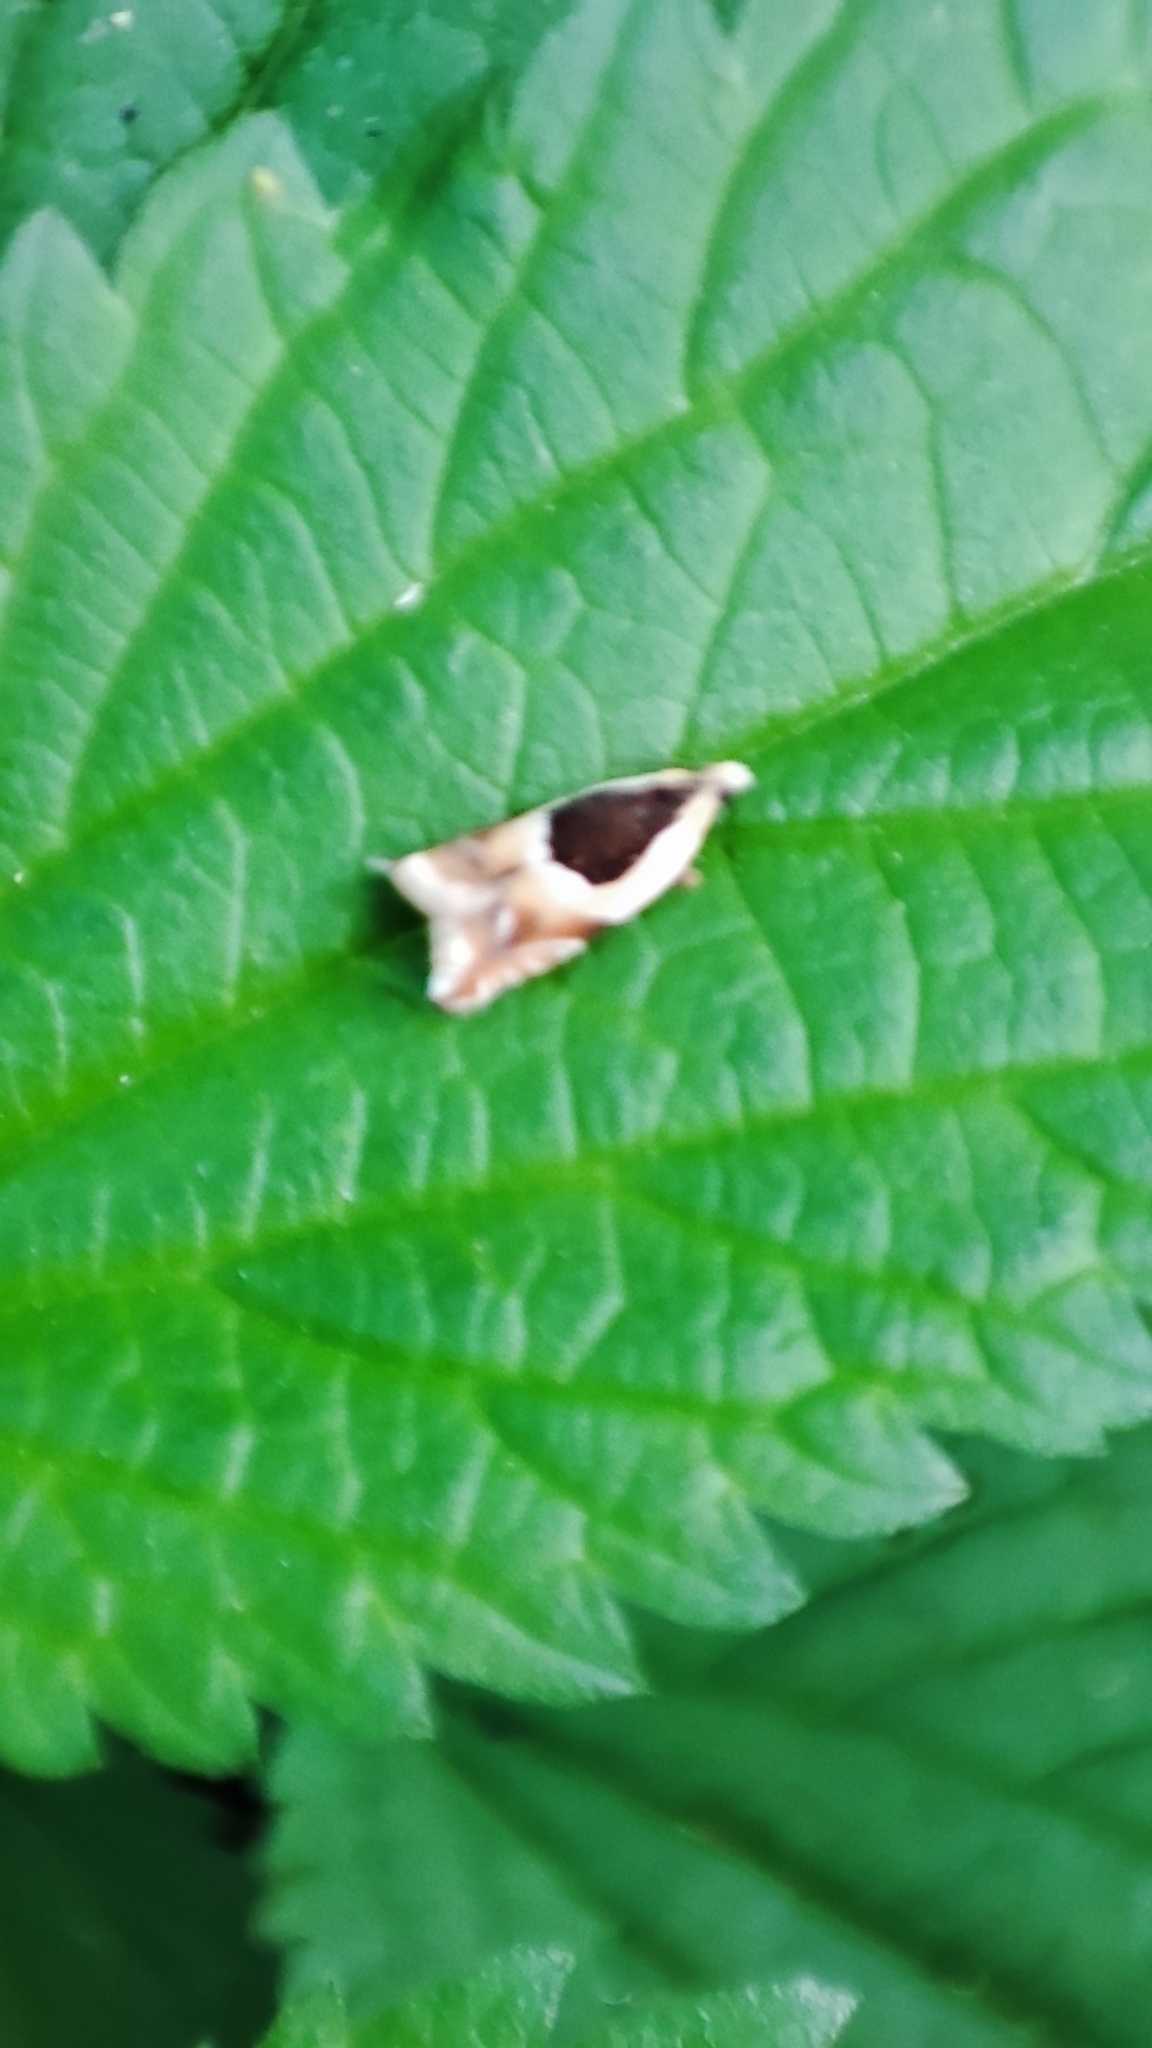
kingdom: Animalia
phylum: Arthropoda
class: Insecta
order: Lepidoptera
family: Tortricidae
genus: Ancylis
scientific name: Ancylis badiana
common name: Common roller
